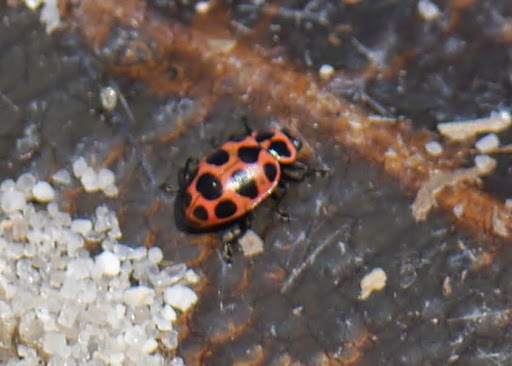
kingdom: Animalia
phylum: Arthropoda
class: Insecta
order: Coleoptera
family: Coccinellidae
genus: Coleomegilla
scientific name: Coleomegilla maculata
